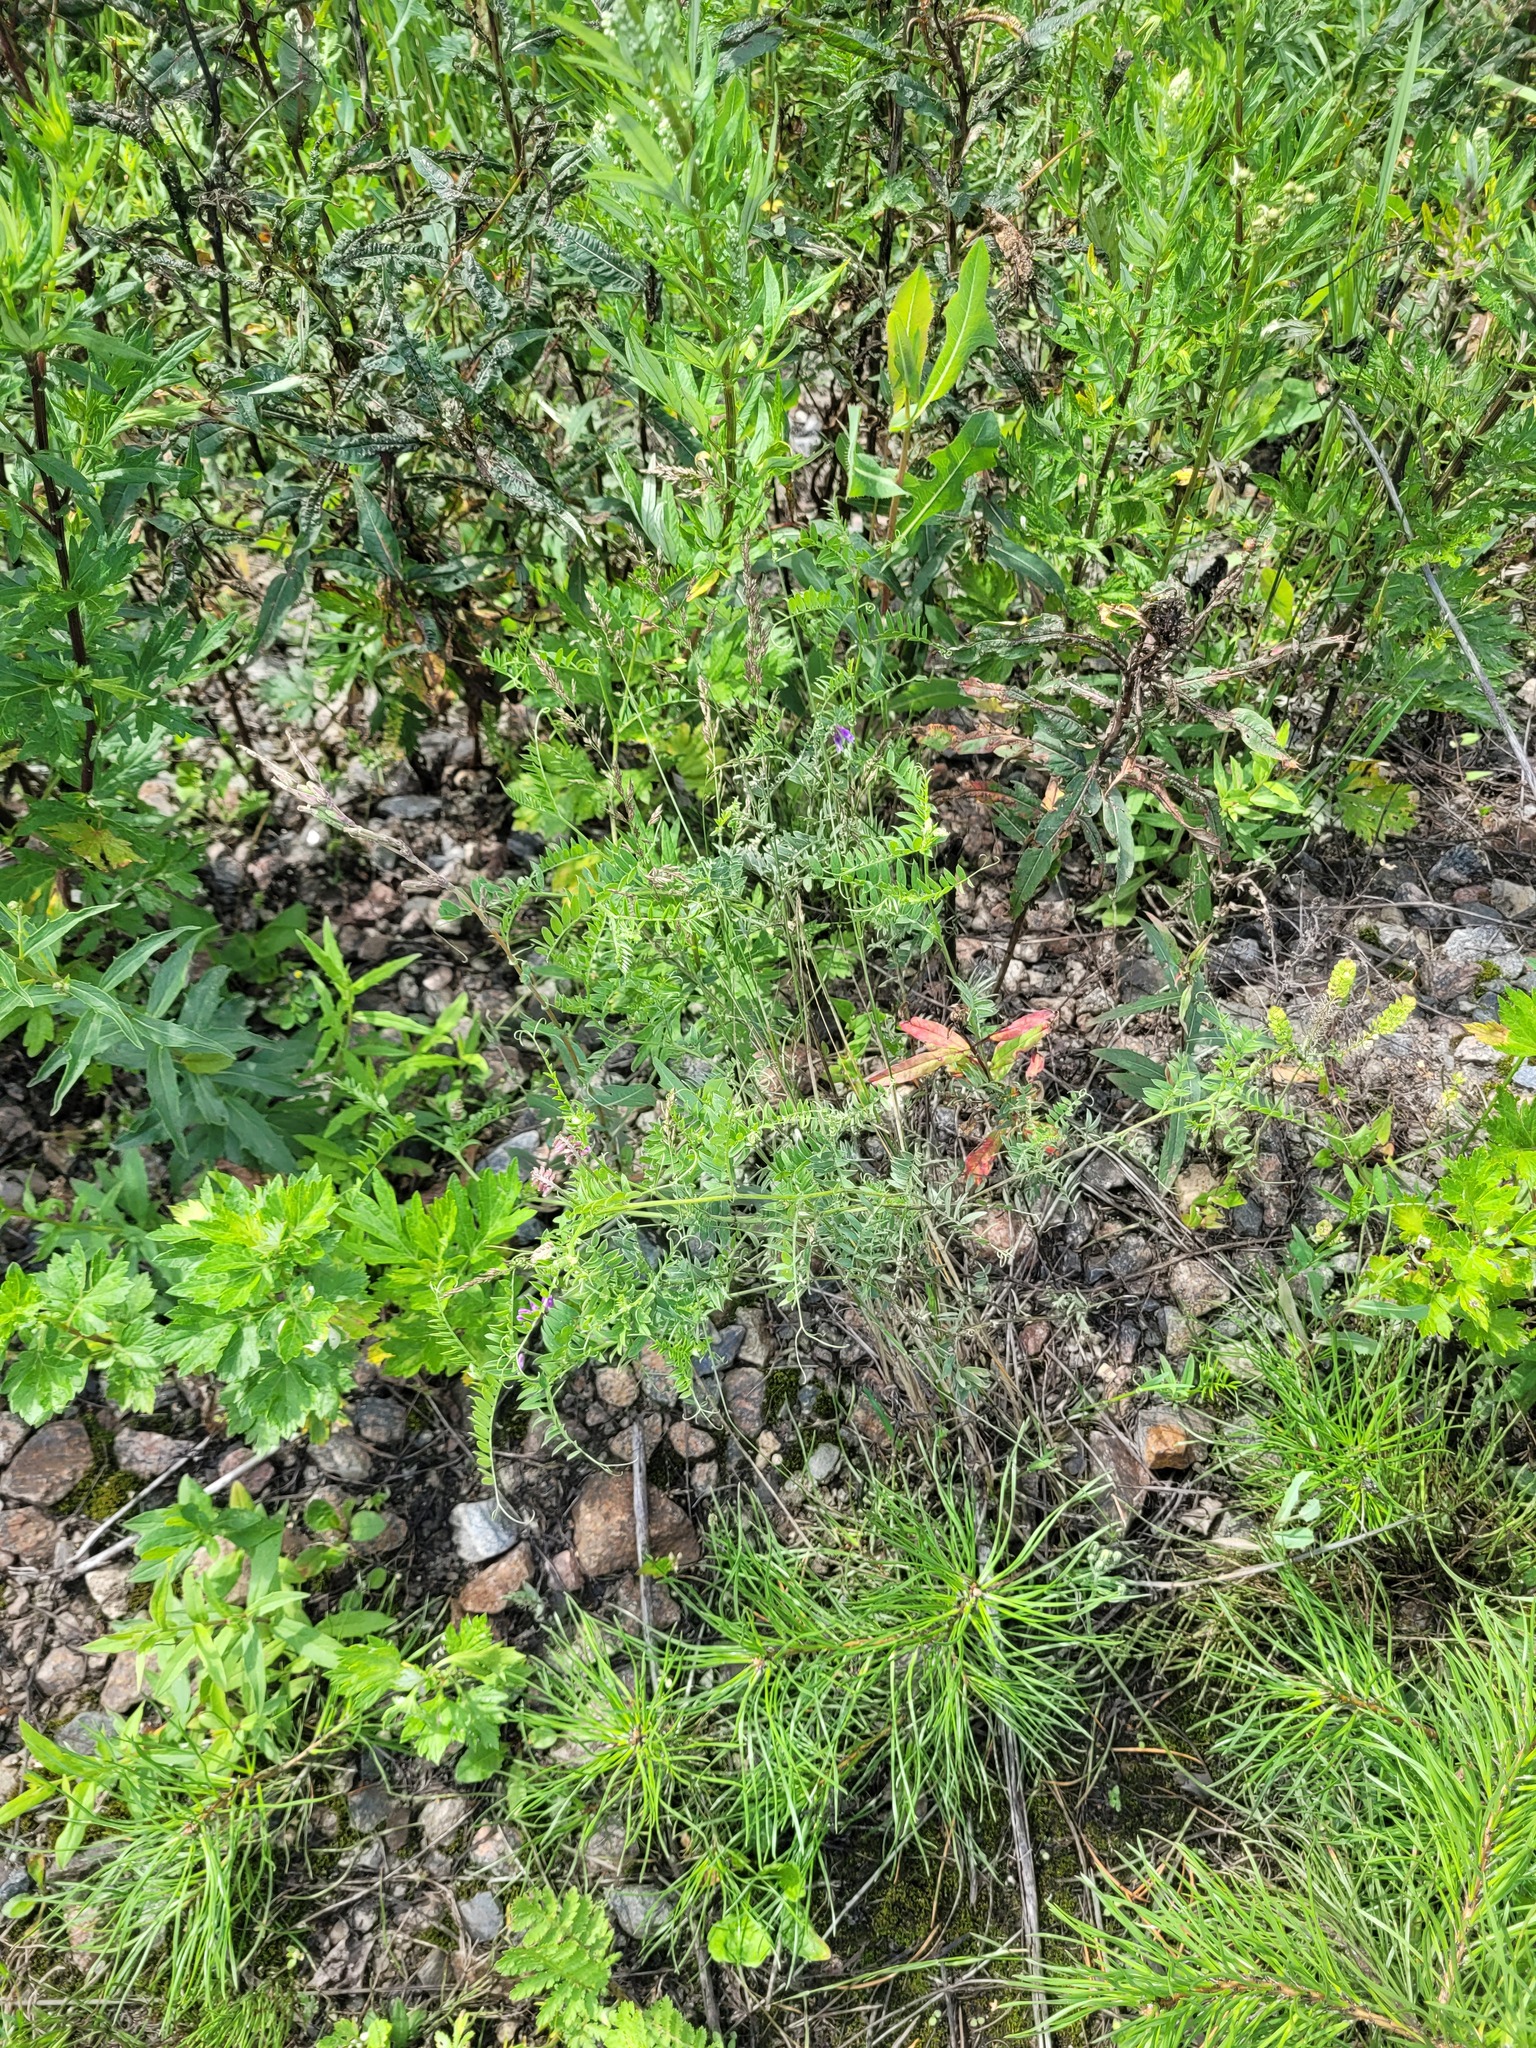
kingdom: Plantae
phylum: Tracheophyta
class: Magnoliopsida
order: Fabales
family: Fabaceae
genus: Vicia
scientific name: Vicia cracca
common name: Bird vetch
